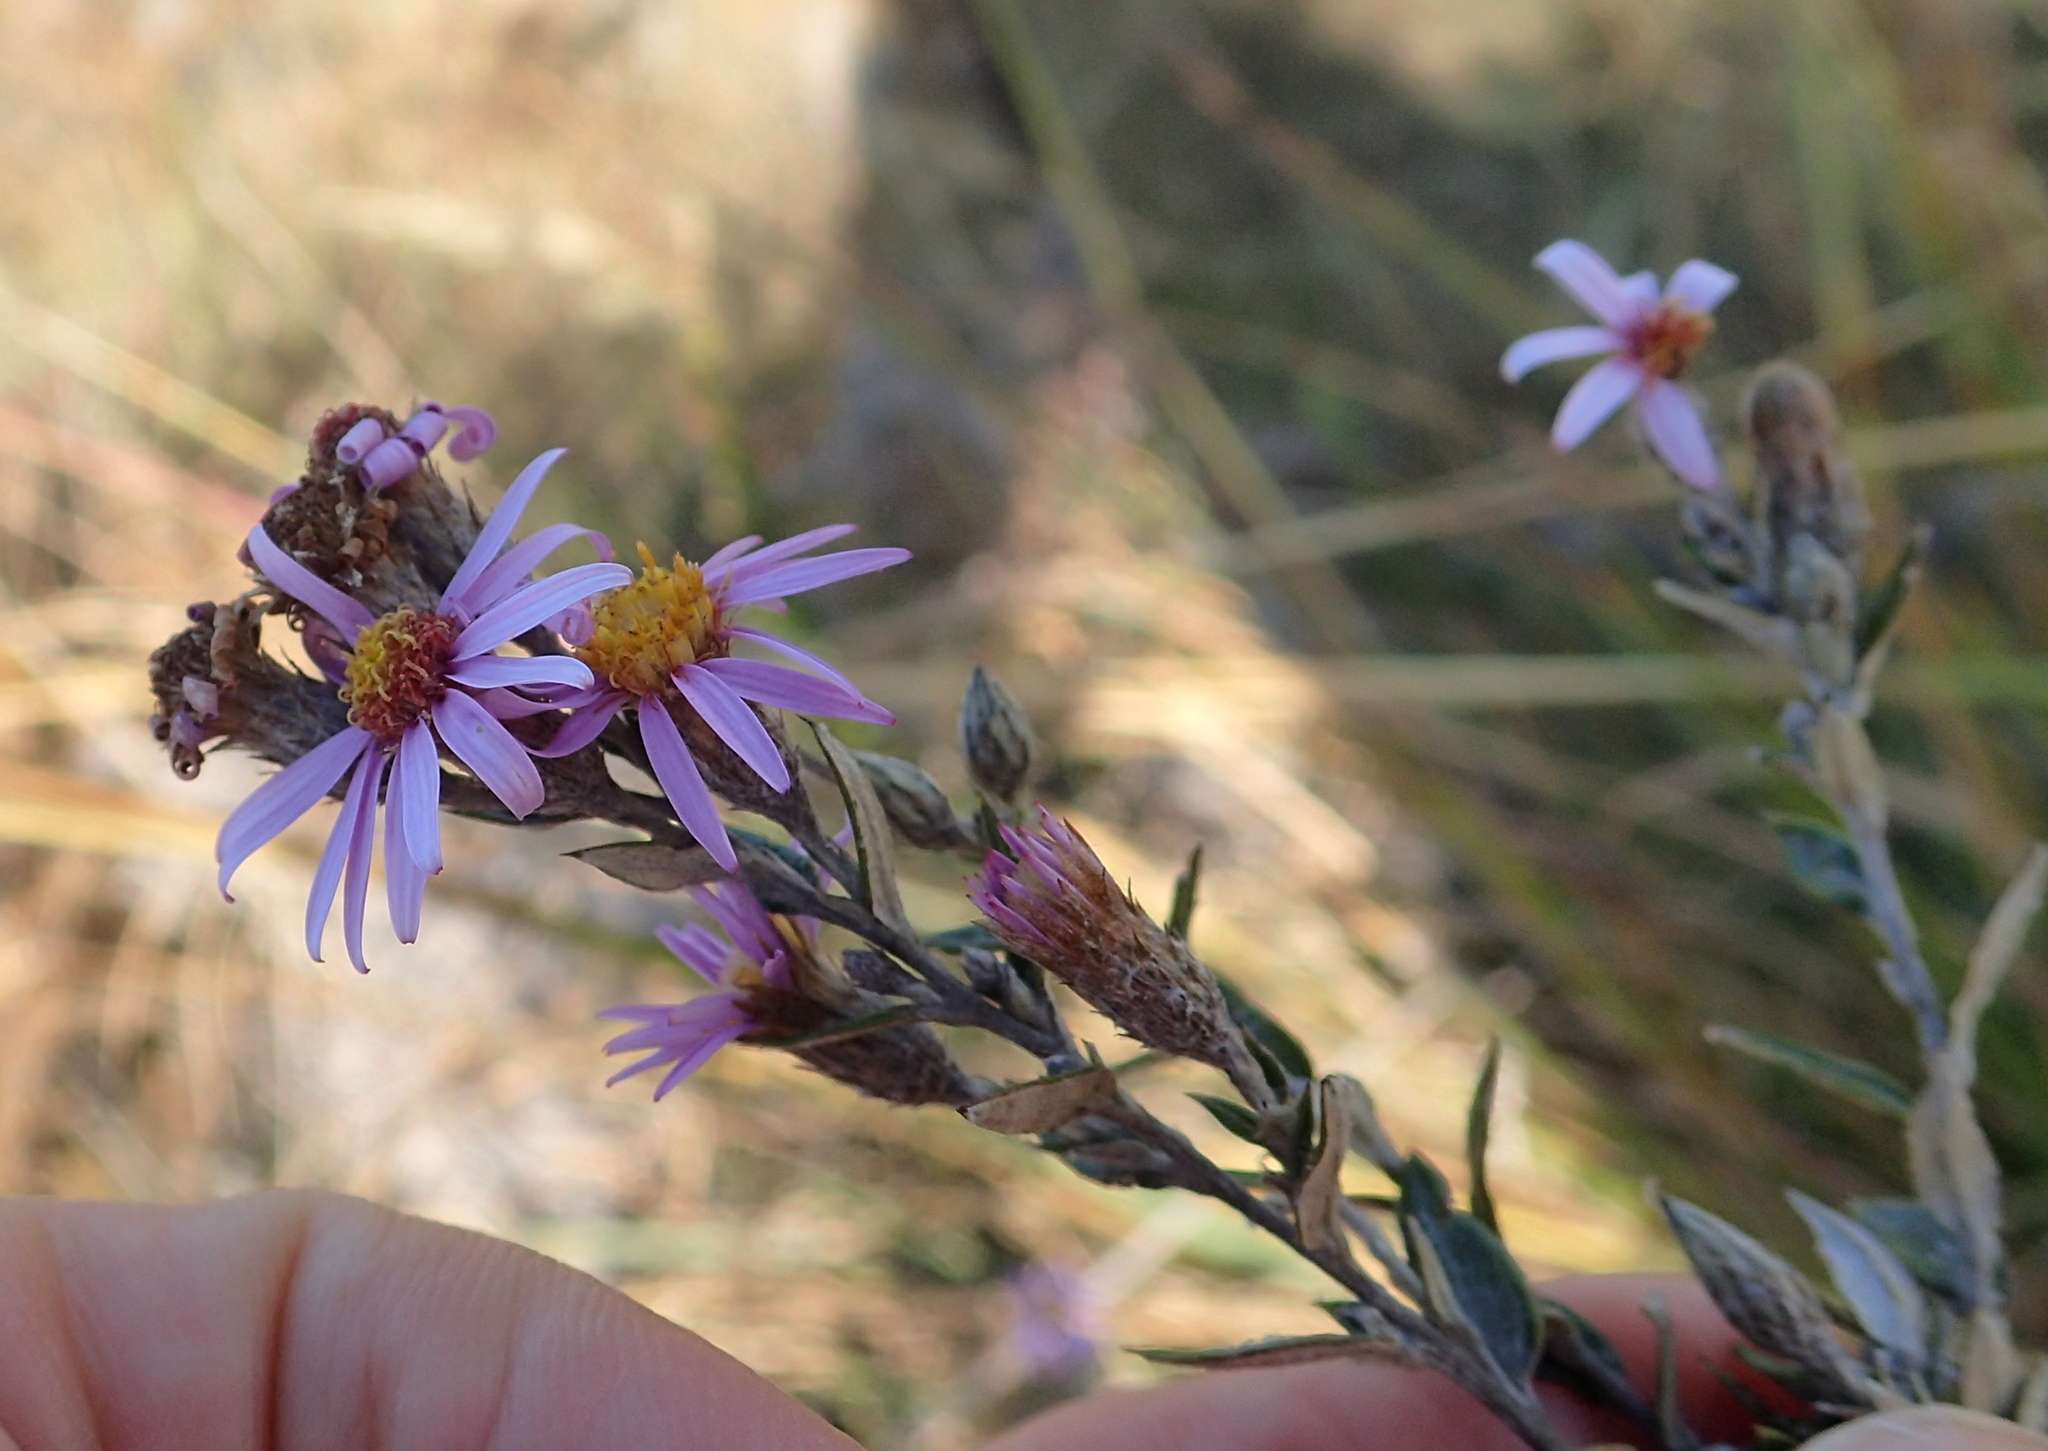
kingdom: Plantae
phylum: Tracheophyta
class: Magnoliopsida
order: Asterales
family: Asteraceae
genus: Athrixia
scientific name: Athrixia phylicoides
